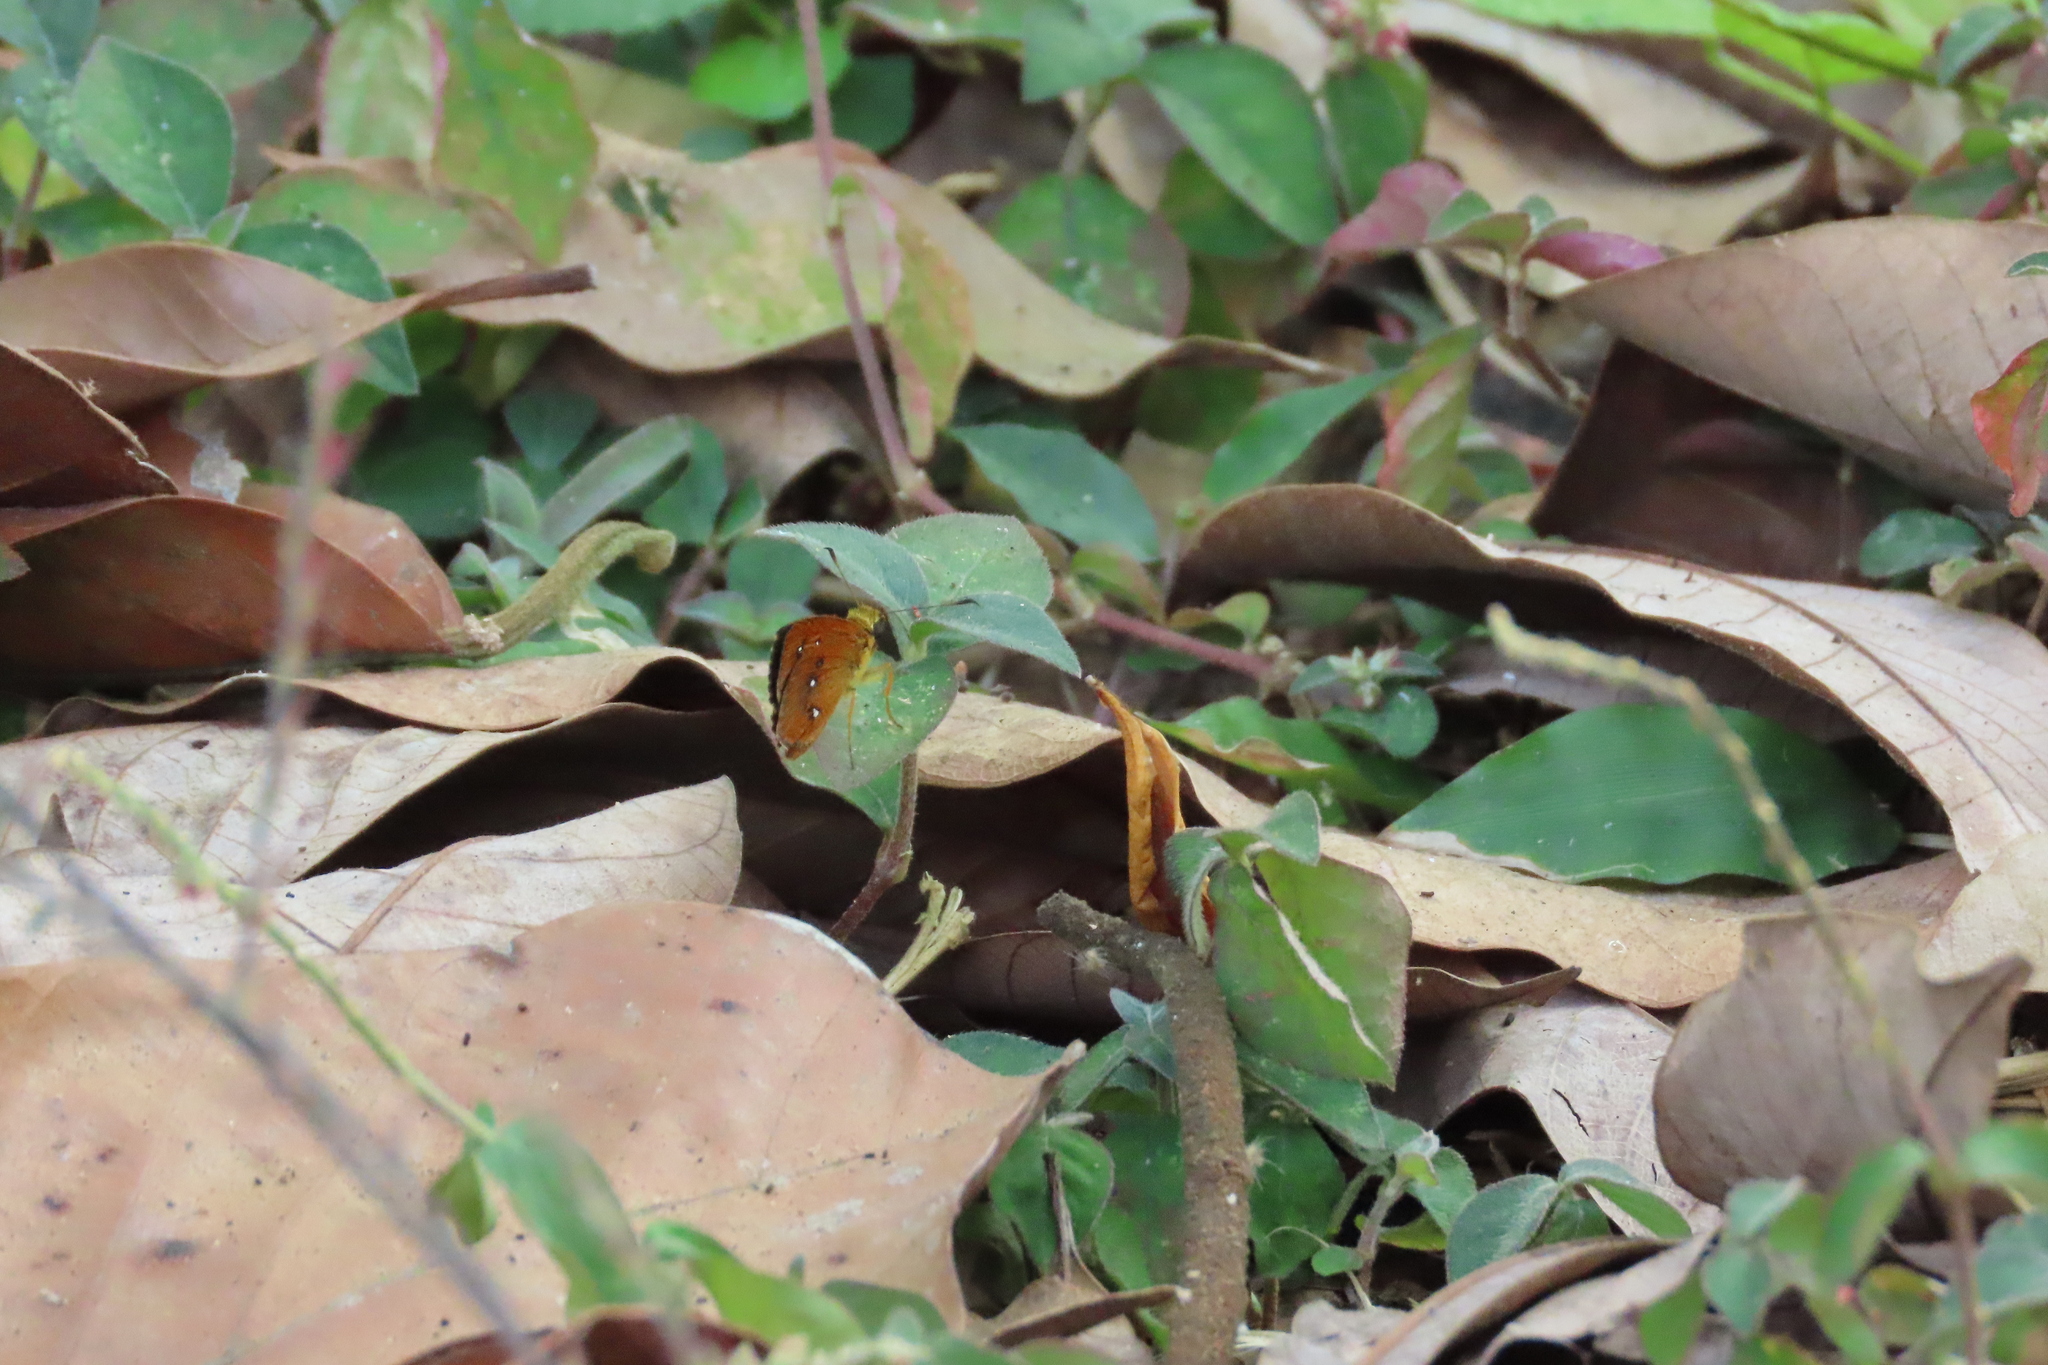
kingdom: Animalia
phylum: Arthropoda
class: Insecta
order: Lepidoptera
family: Hesperiidae
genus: Iambrix
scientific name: Iambrix salsala
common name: Chestnut bob
